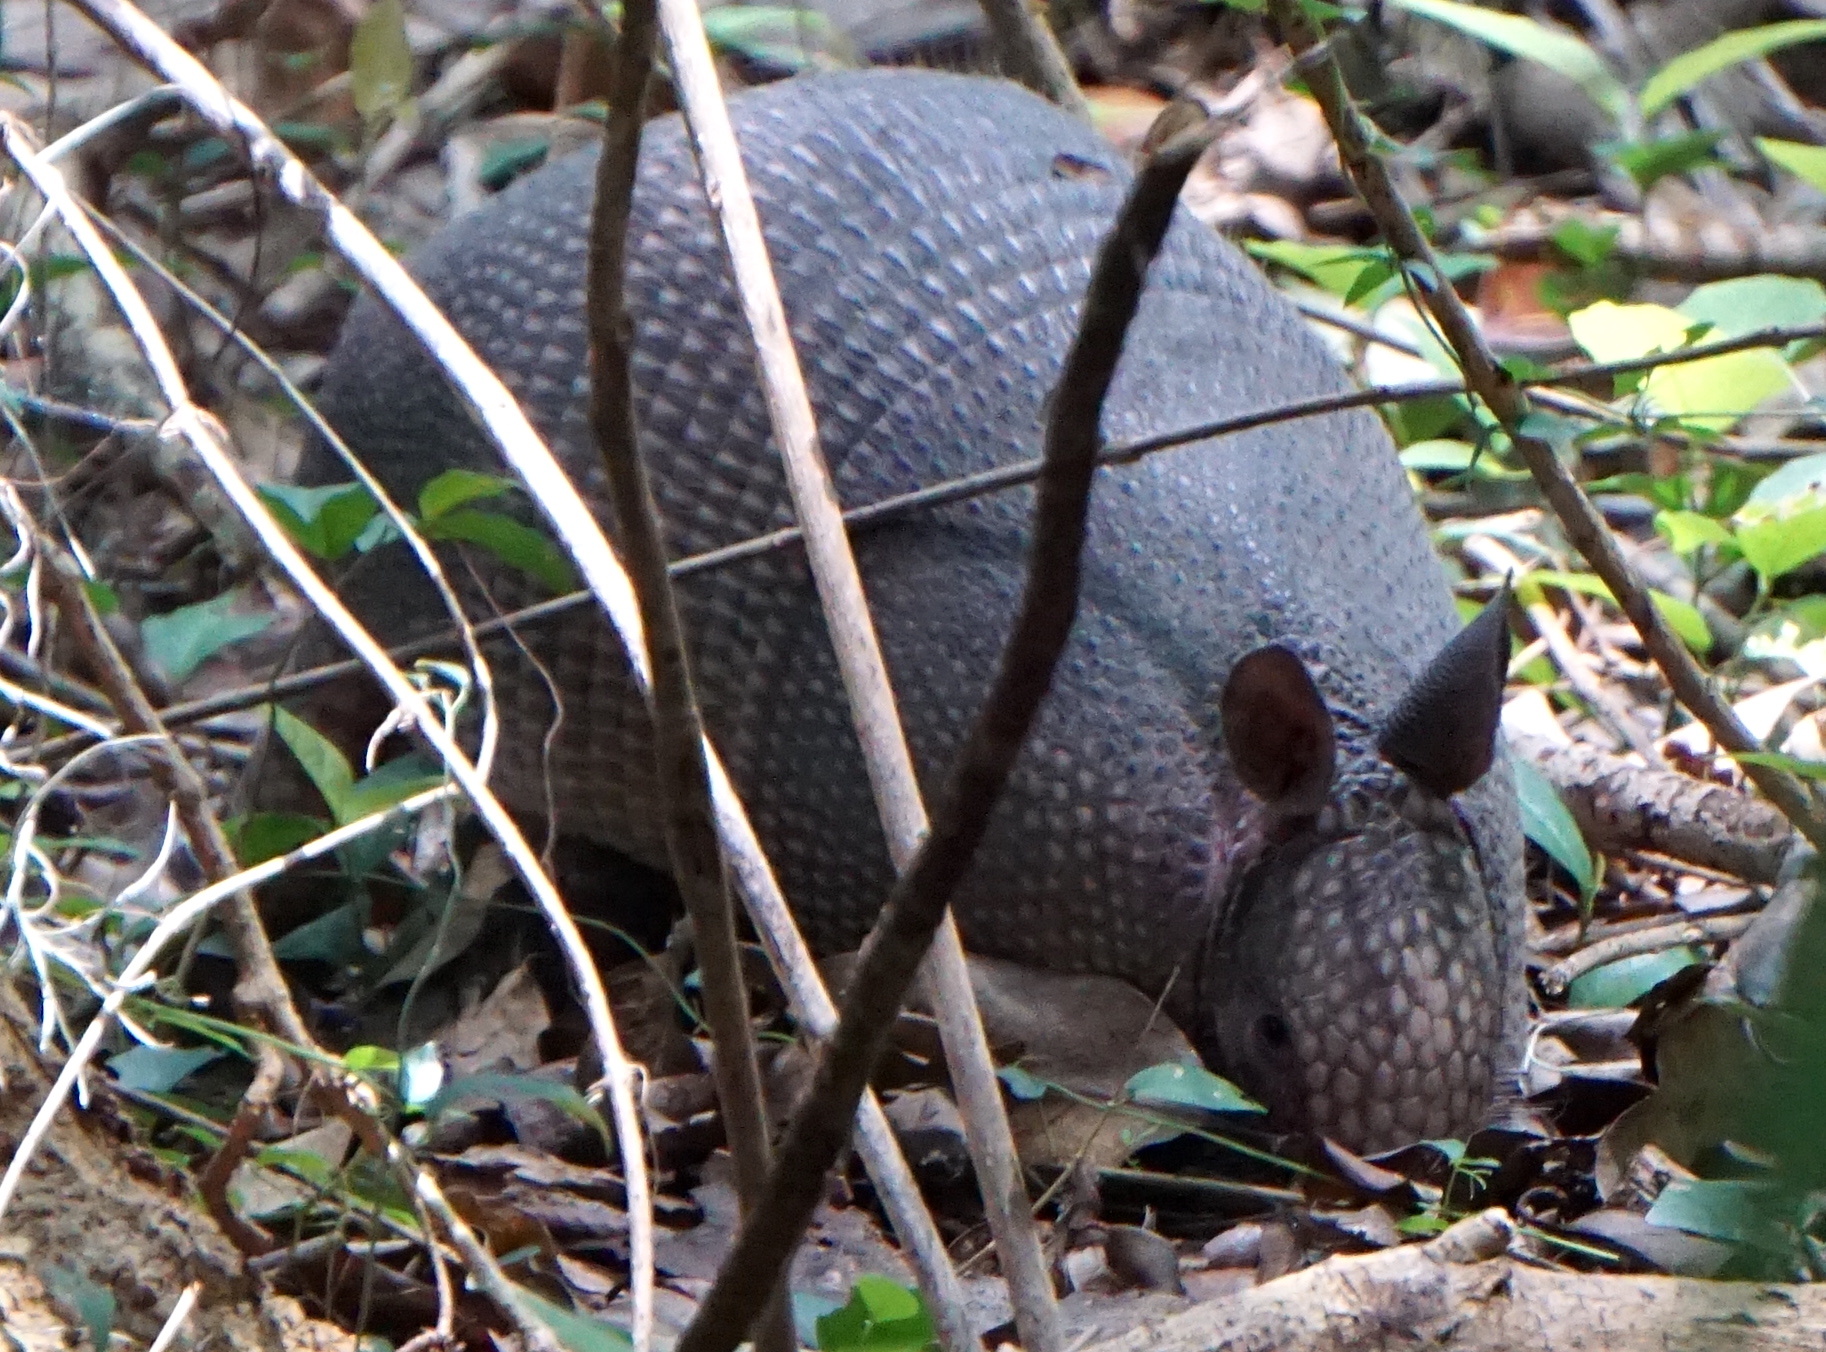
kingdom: Animalia
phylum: Chordata
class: Mammalia
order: Cingulata
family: Dasypodidae
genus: Dasypus
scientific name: Dasypus novemcinctus
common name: Nine-banded armadillo
